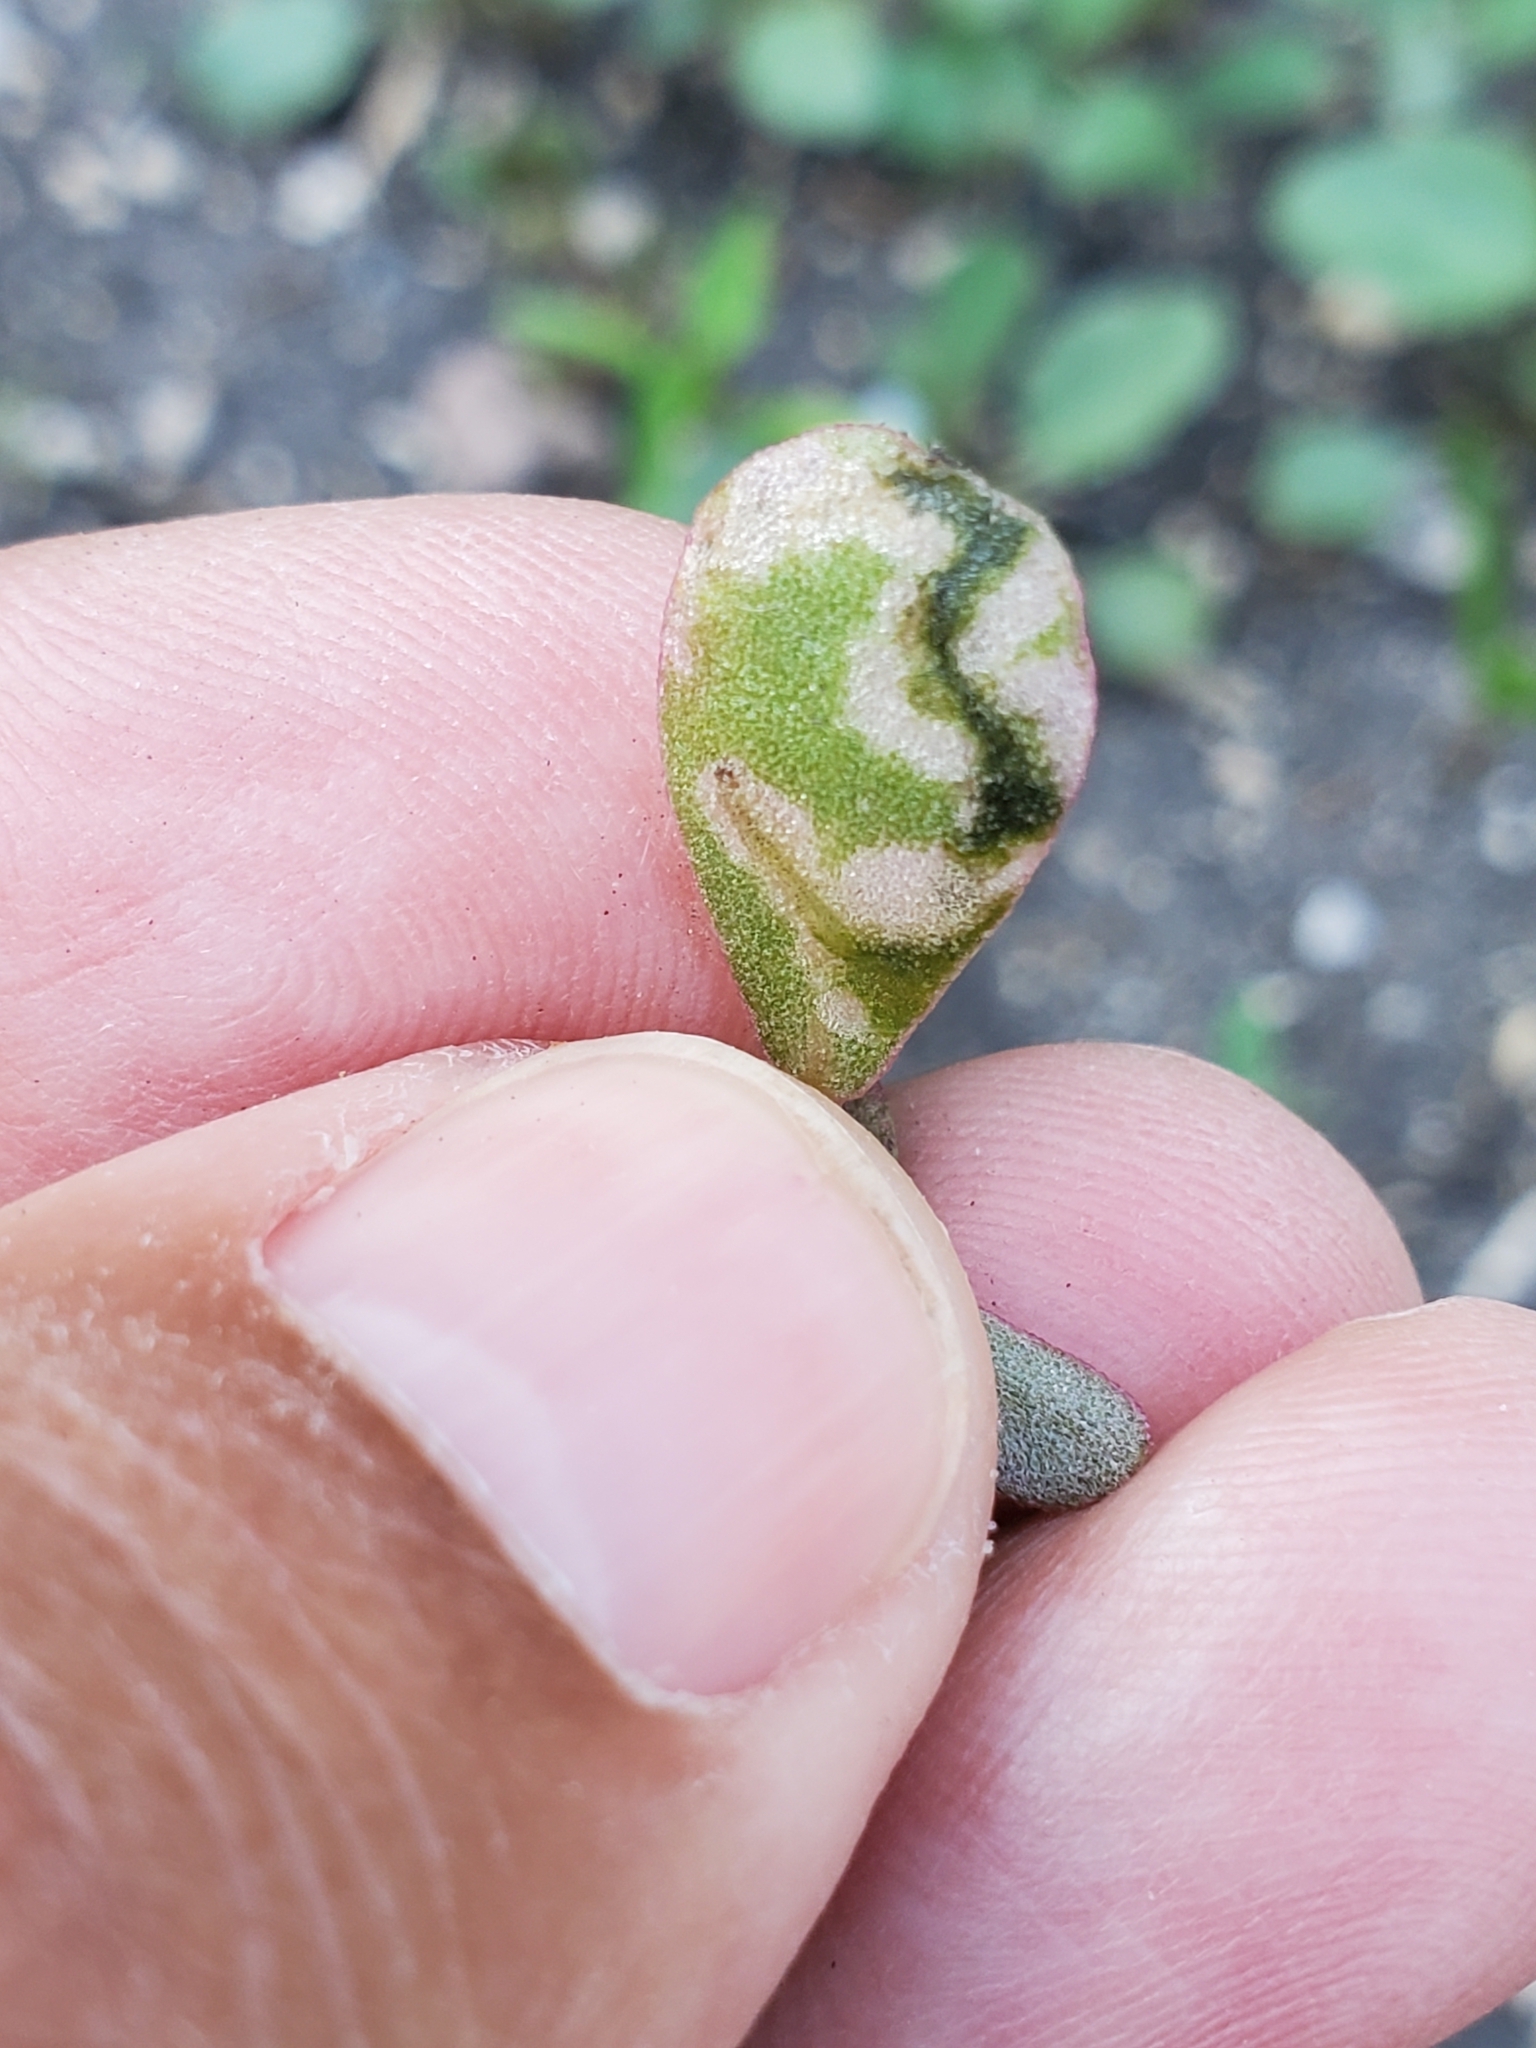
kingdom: Animalia
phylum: Arthropoda
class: Insecta
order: Hymenoptera
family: Argidae
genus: Schizocerella
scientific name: Schizocerella pilicornis
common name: Purslane sawfly
